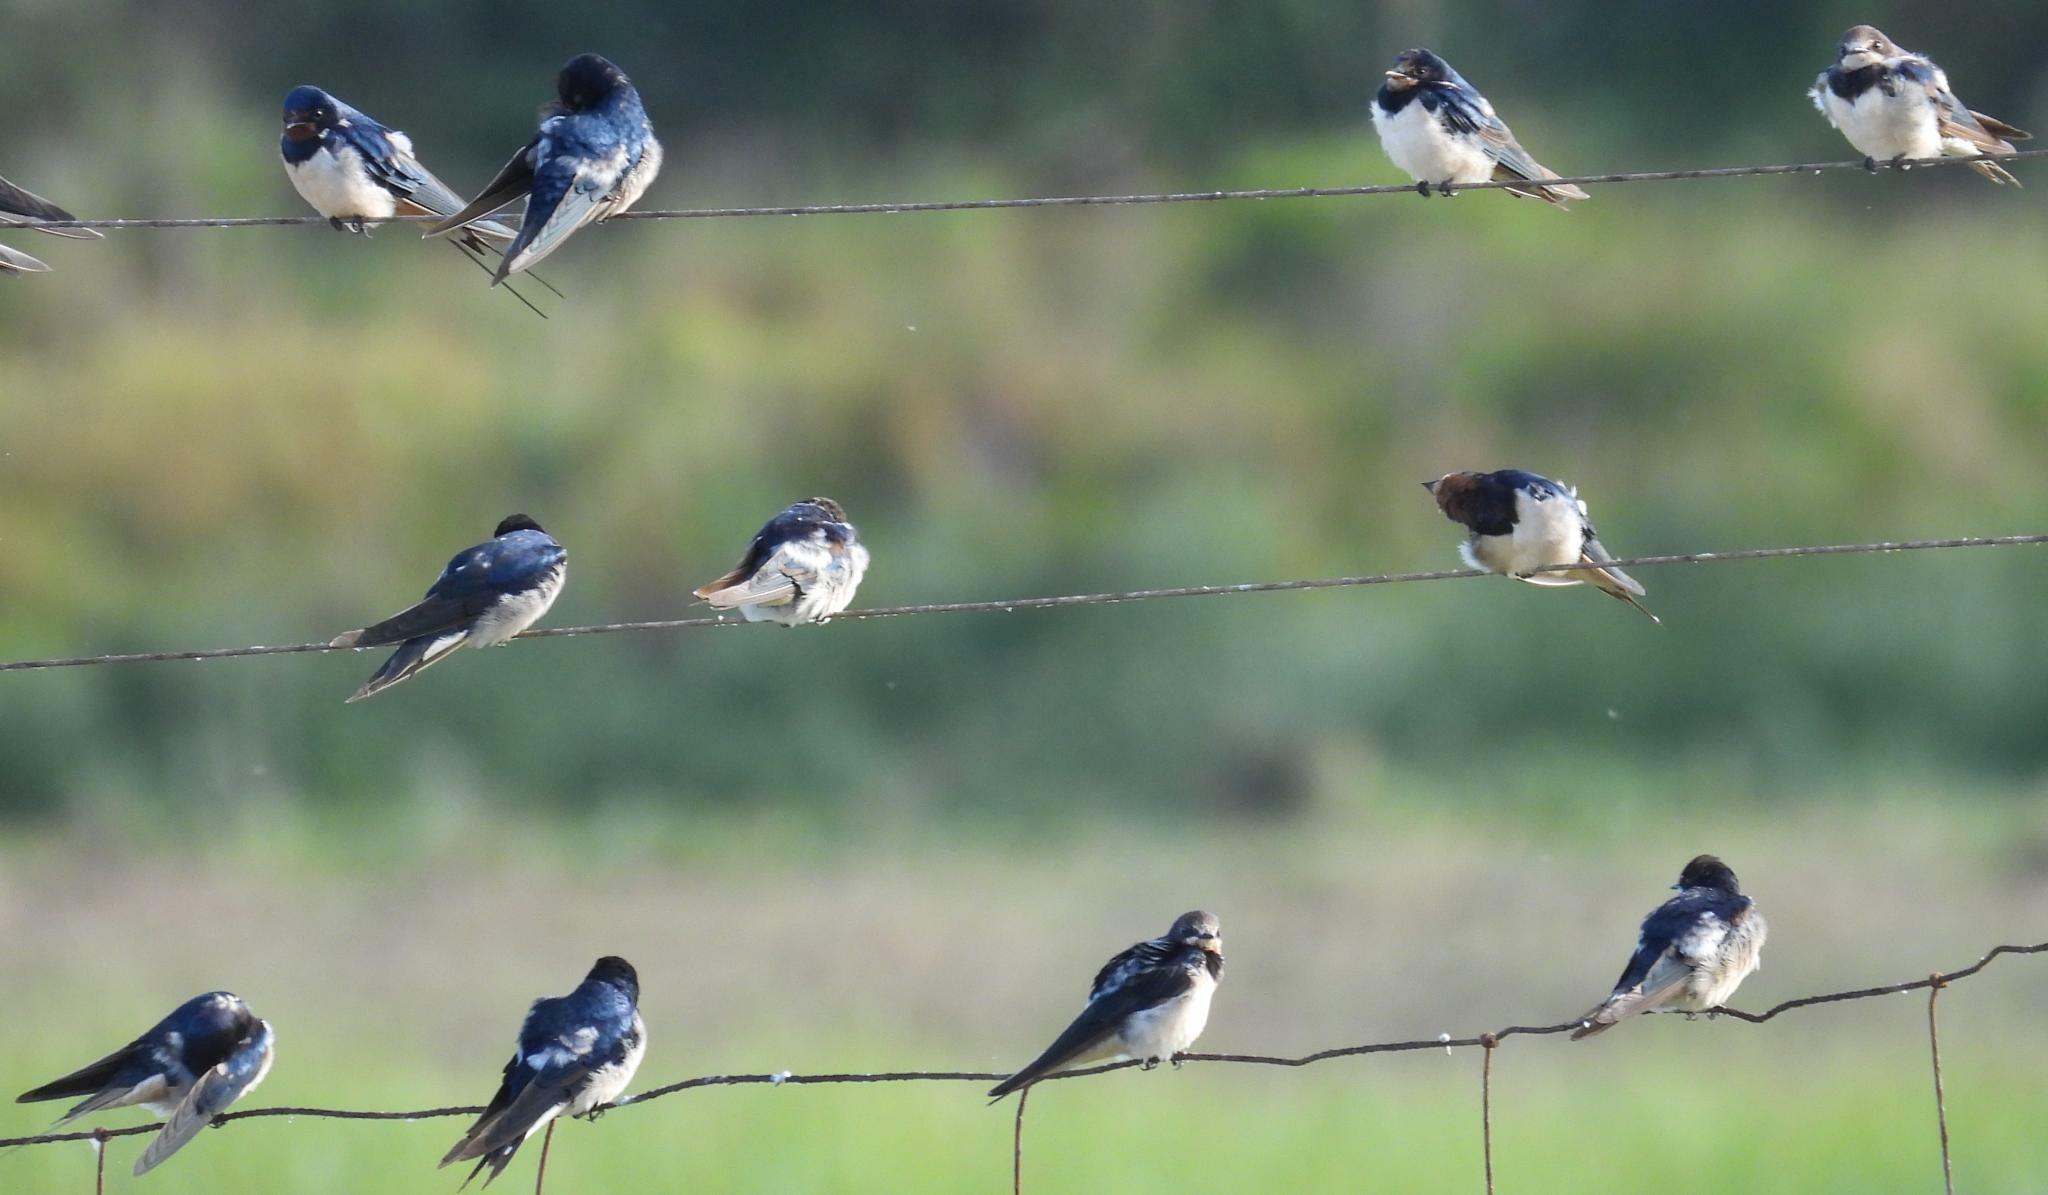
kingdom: Animalia
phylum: Chordata
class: Aves
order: Passeriformes
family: Hirundinidae
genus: Hirundo
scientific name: Hirundo rustica
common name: Barn swallow
